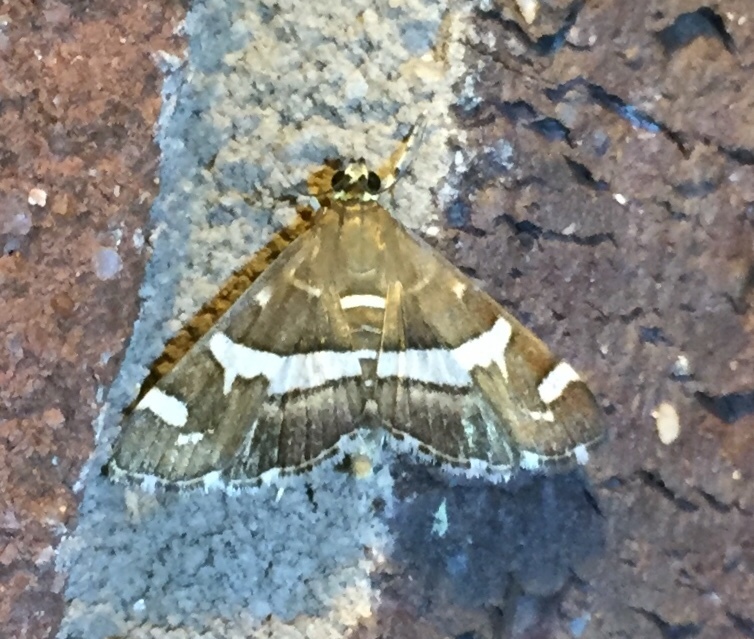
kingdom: Animalia
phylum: Arthropoda
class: Insecta
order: Lepidoptera
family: Crambidae
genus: Spoladea
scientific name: Spoladea recurvalis
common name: Beet webworm moth
